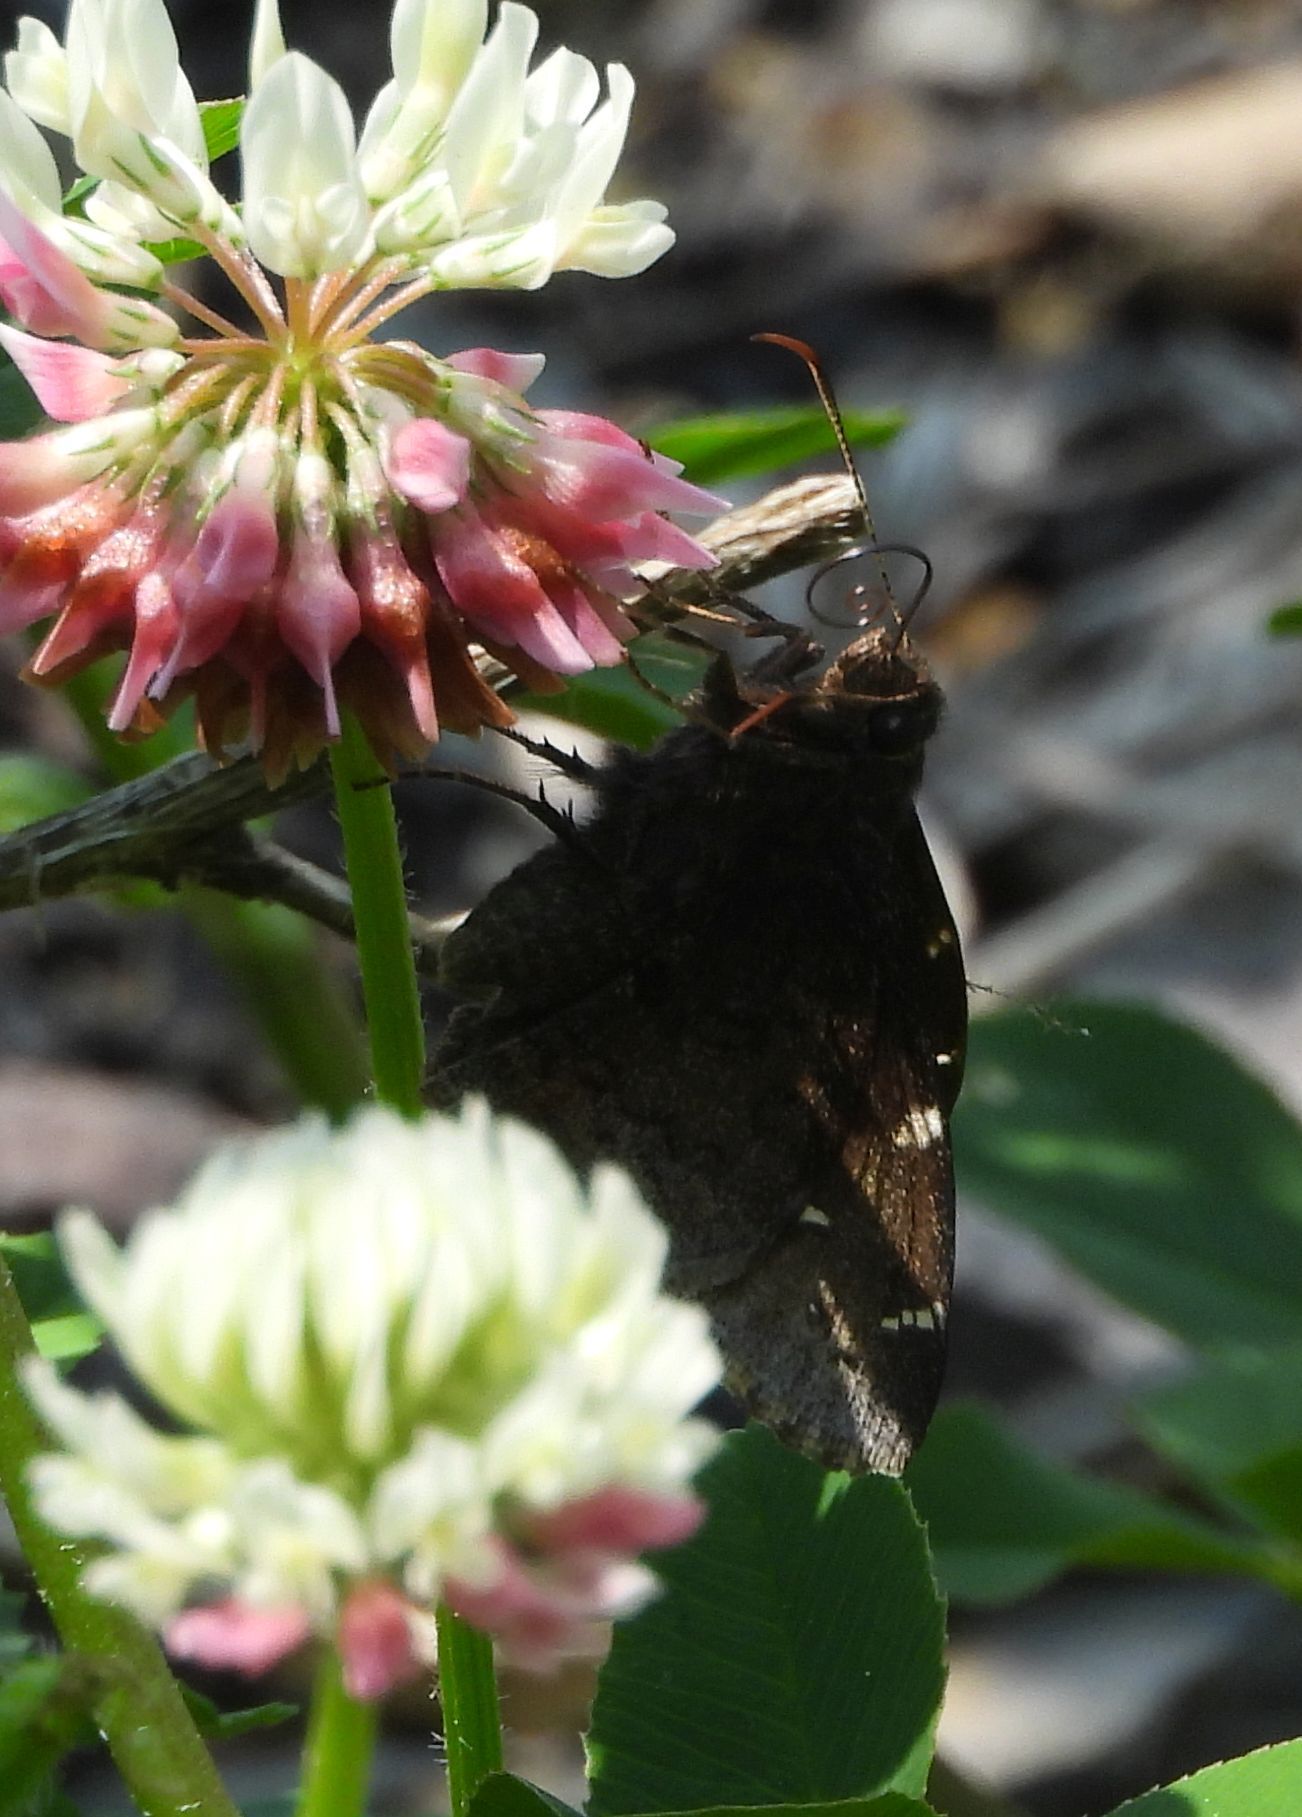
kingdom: Animalia
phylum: Arthropoda
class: Insecta
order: Lepidoptera
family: Hesperiidae
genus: Thorybes
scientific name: Thorybes pylades
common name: Northern cloudywing
